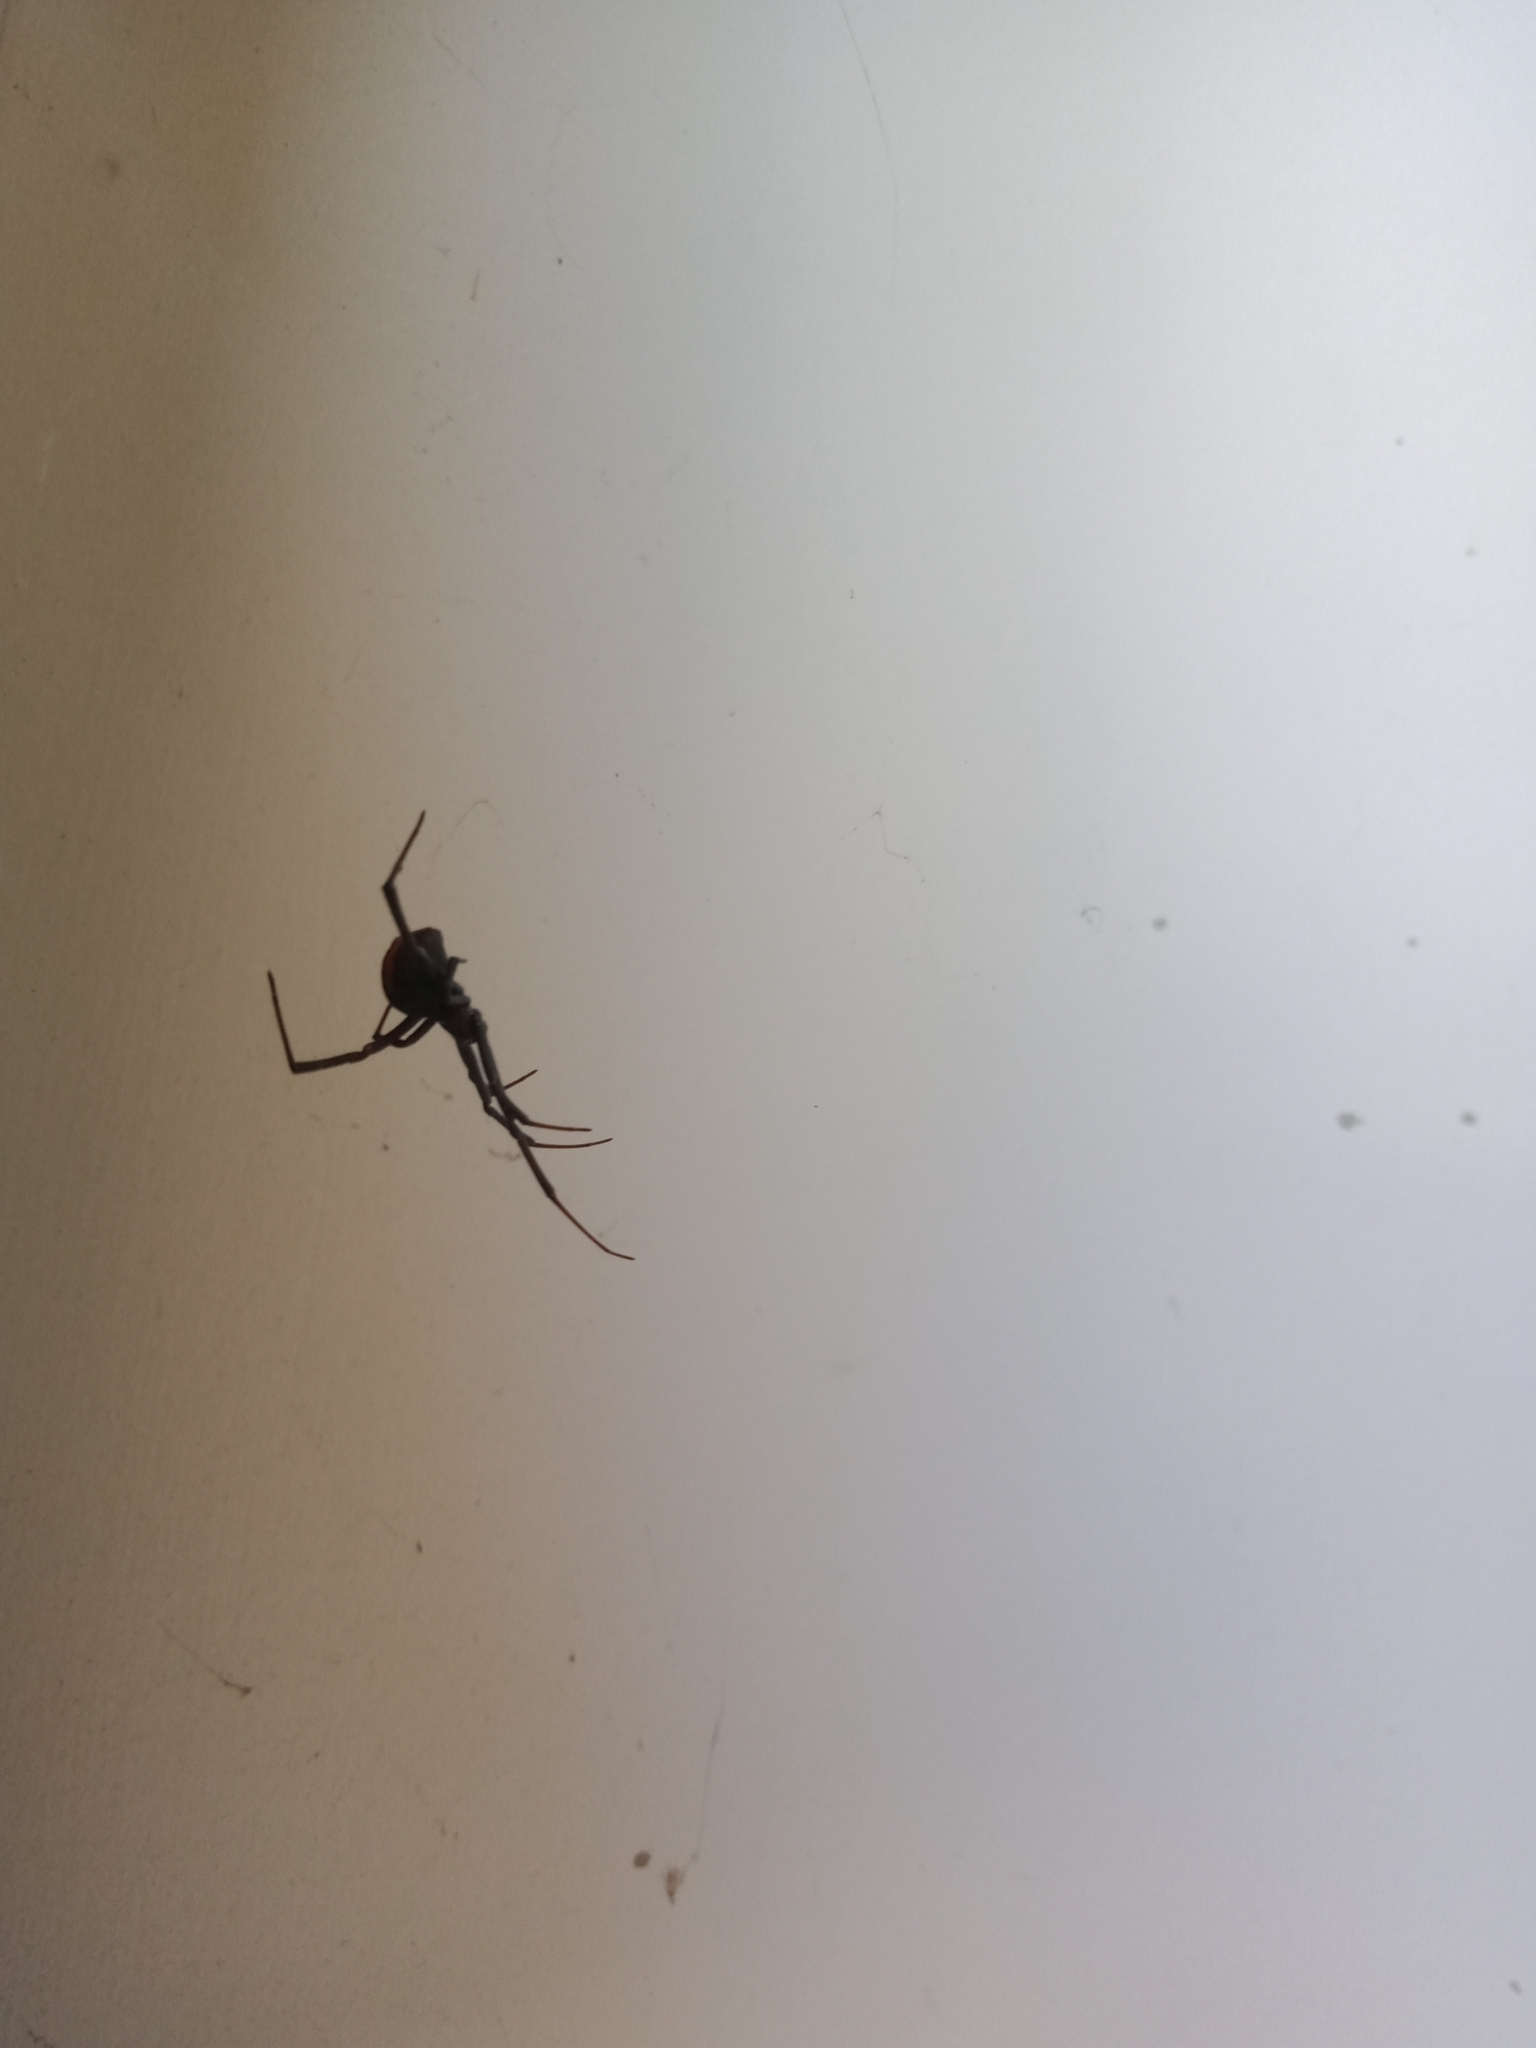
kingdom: Animalia
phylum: Arthropoda
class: Arachnida
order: Araneae
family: Theridiidae
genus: Latrodectus
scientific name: Latrodectus hasselti
